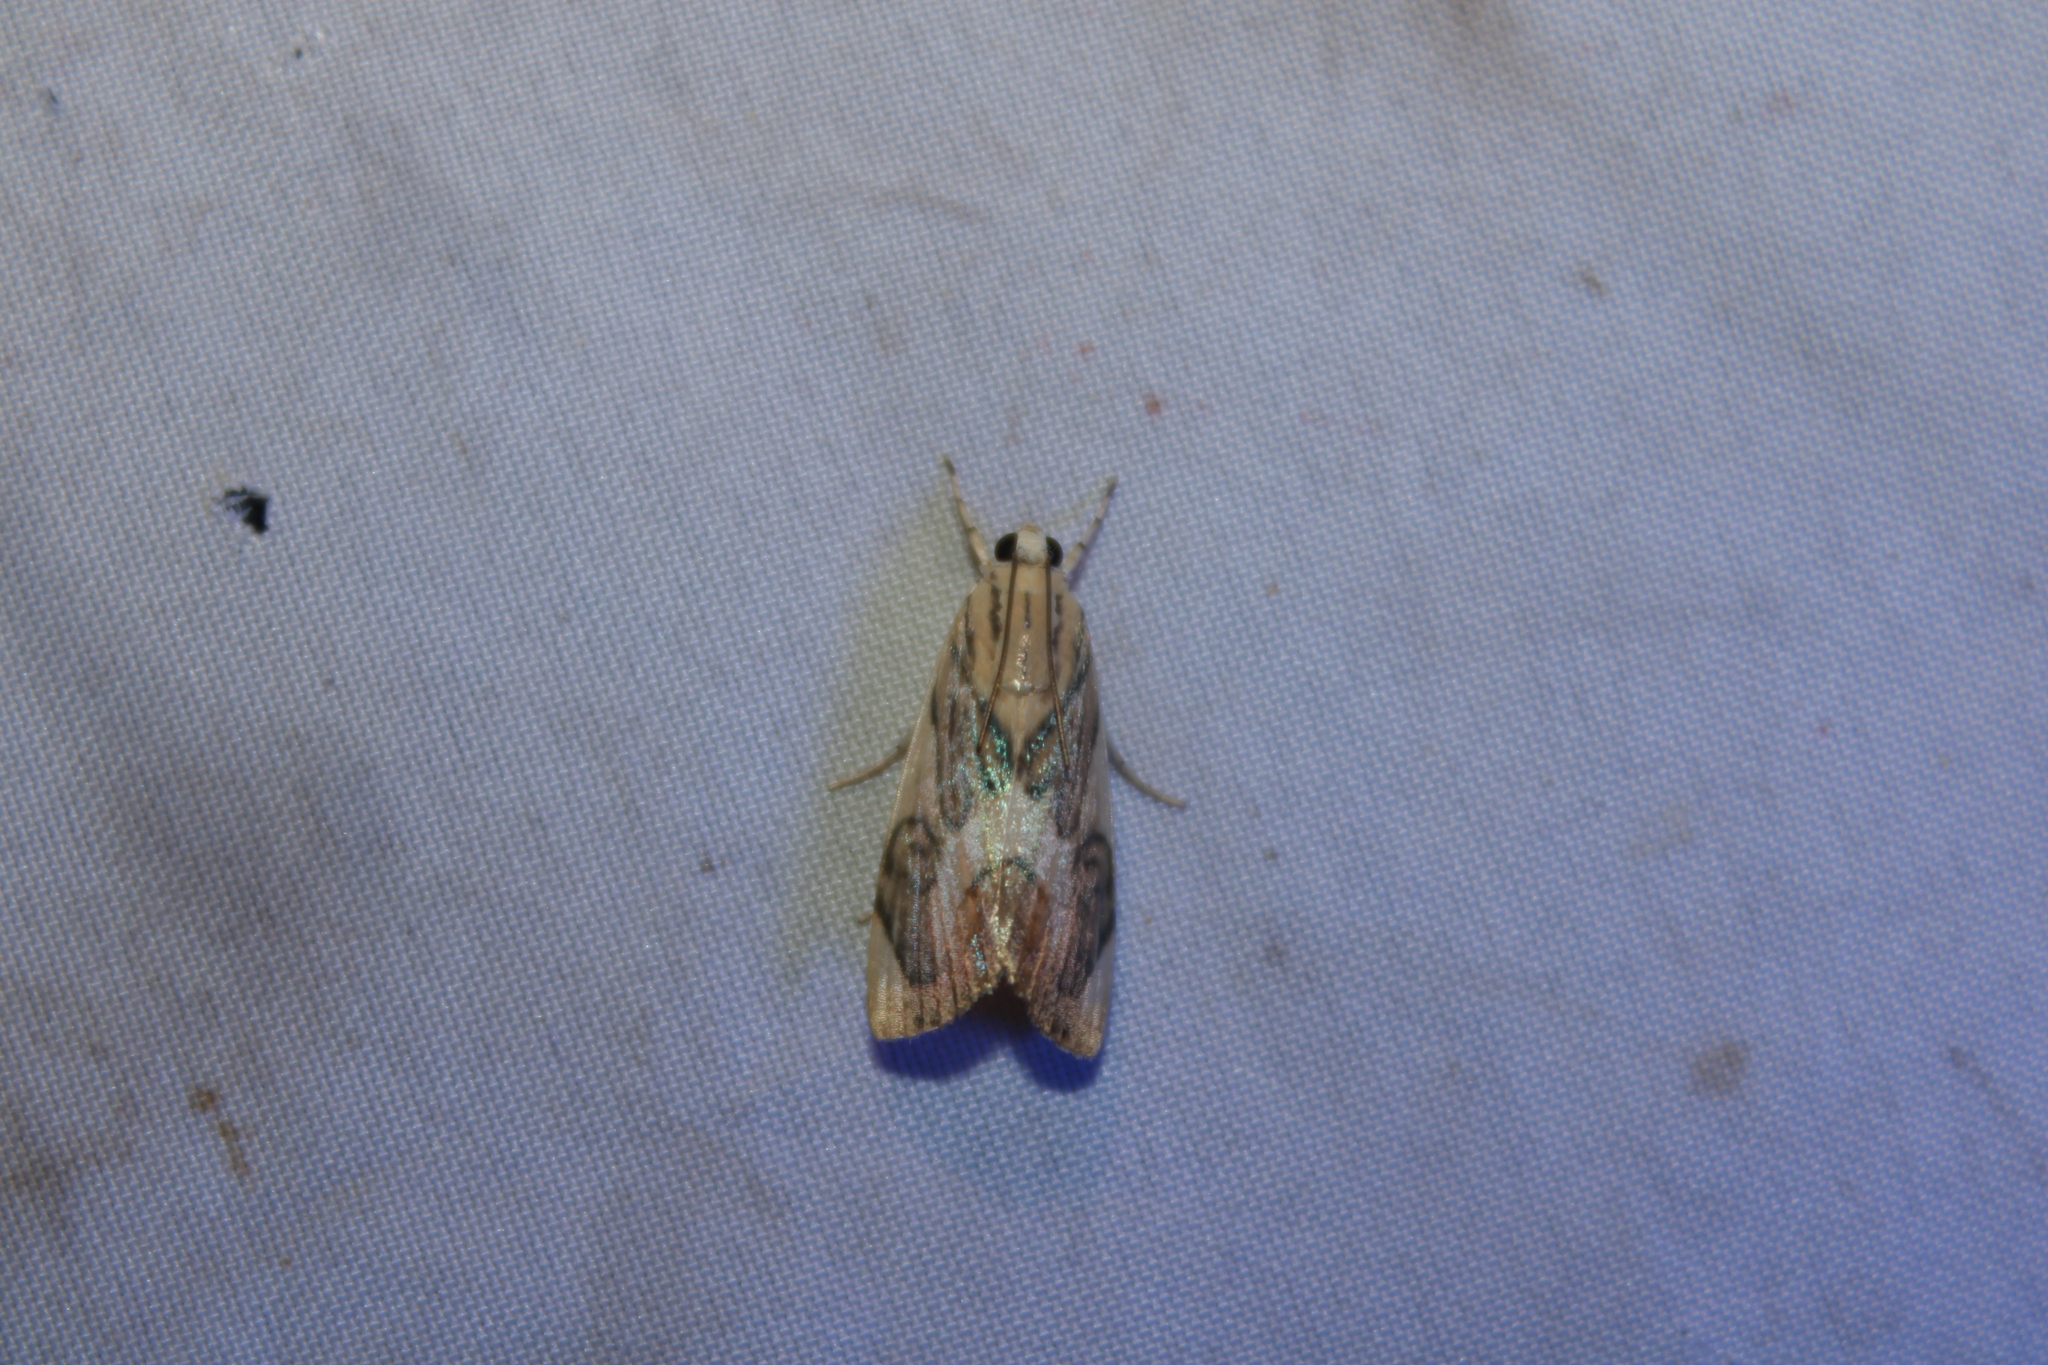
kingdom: Animalia
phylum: Arthropoda
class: Insecta
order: Lepidoptera
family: Crambidae
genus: Dichogama
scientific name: Dichogama redtenbacheri
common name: Carper-leaf webworm moth
